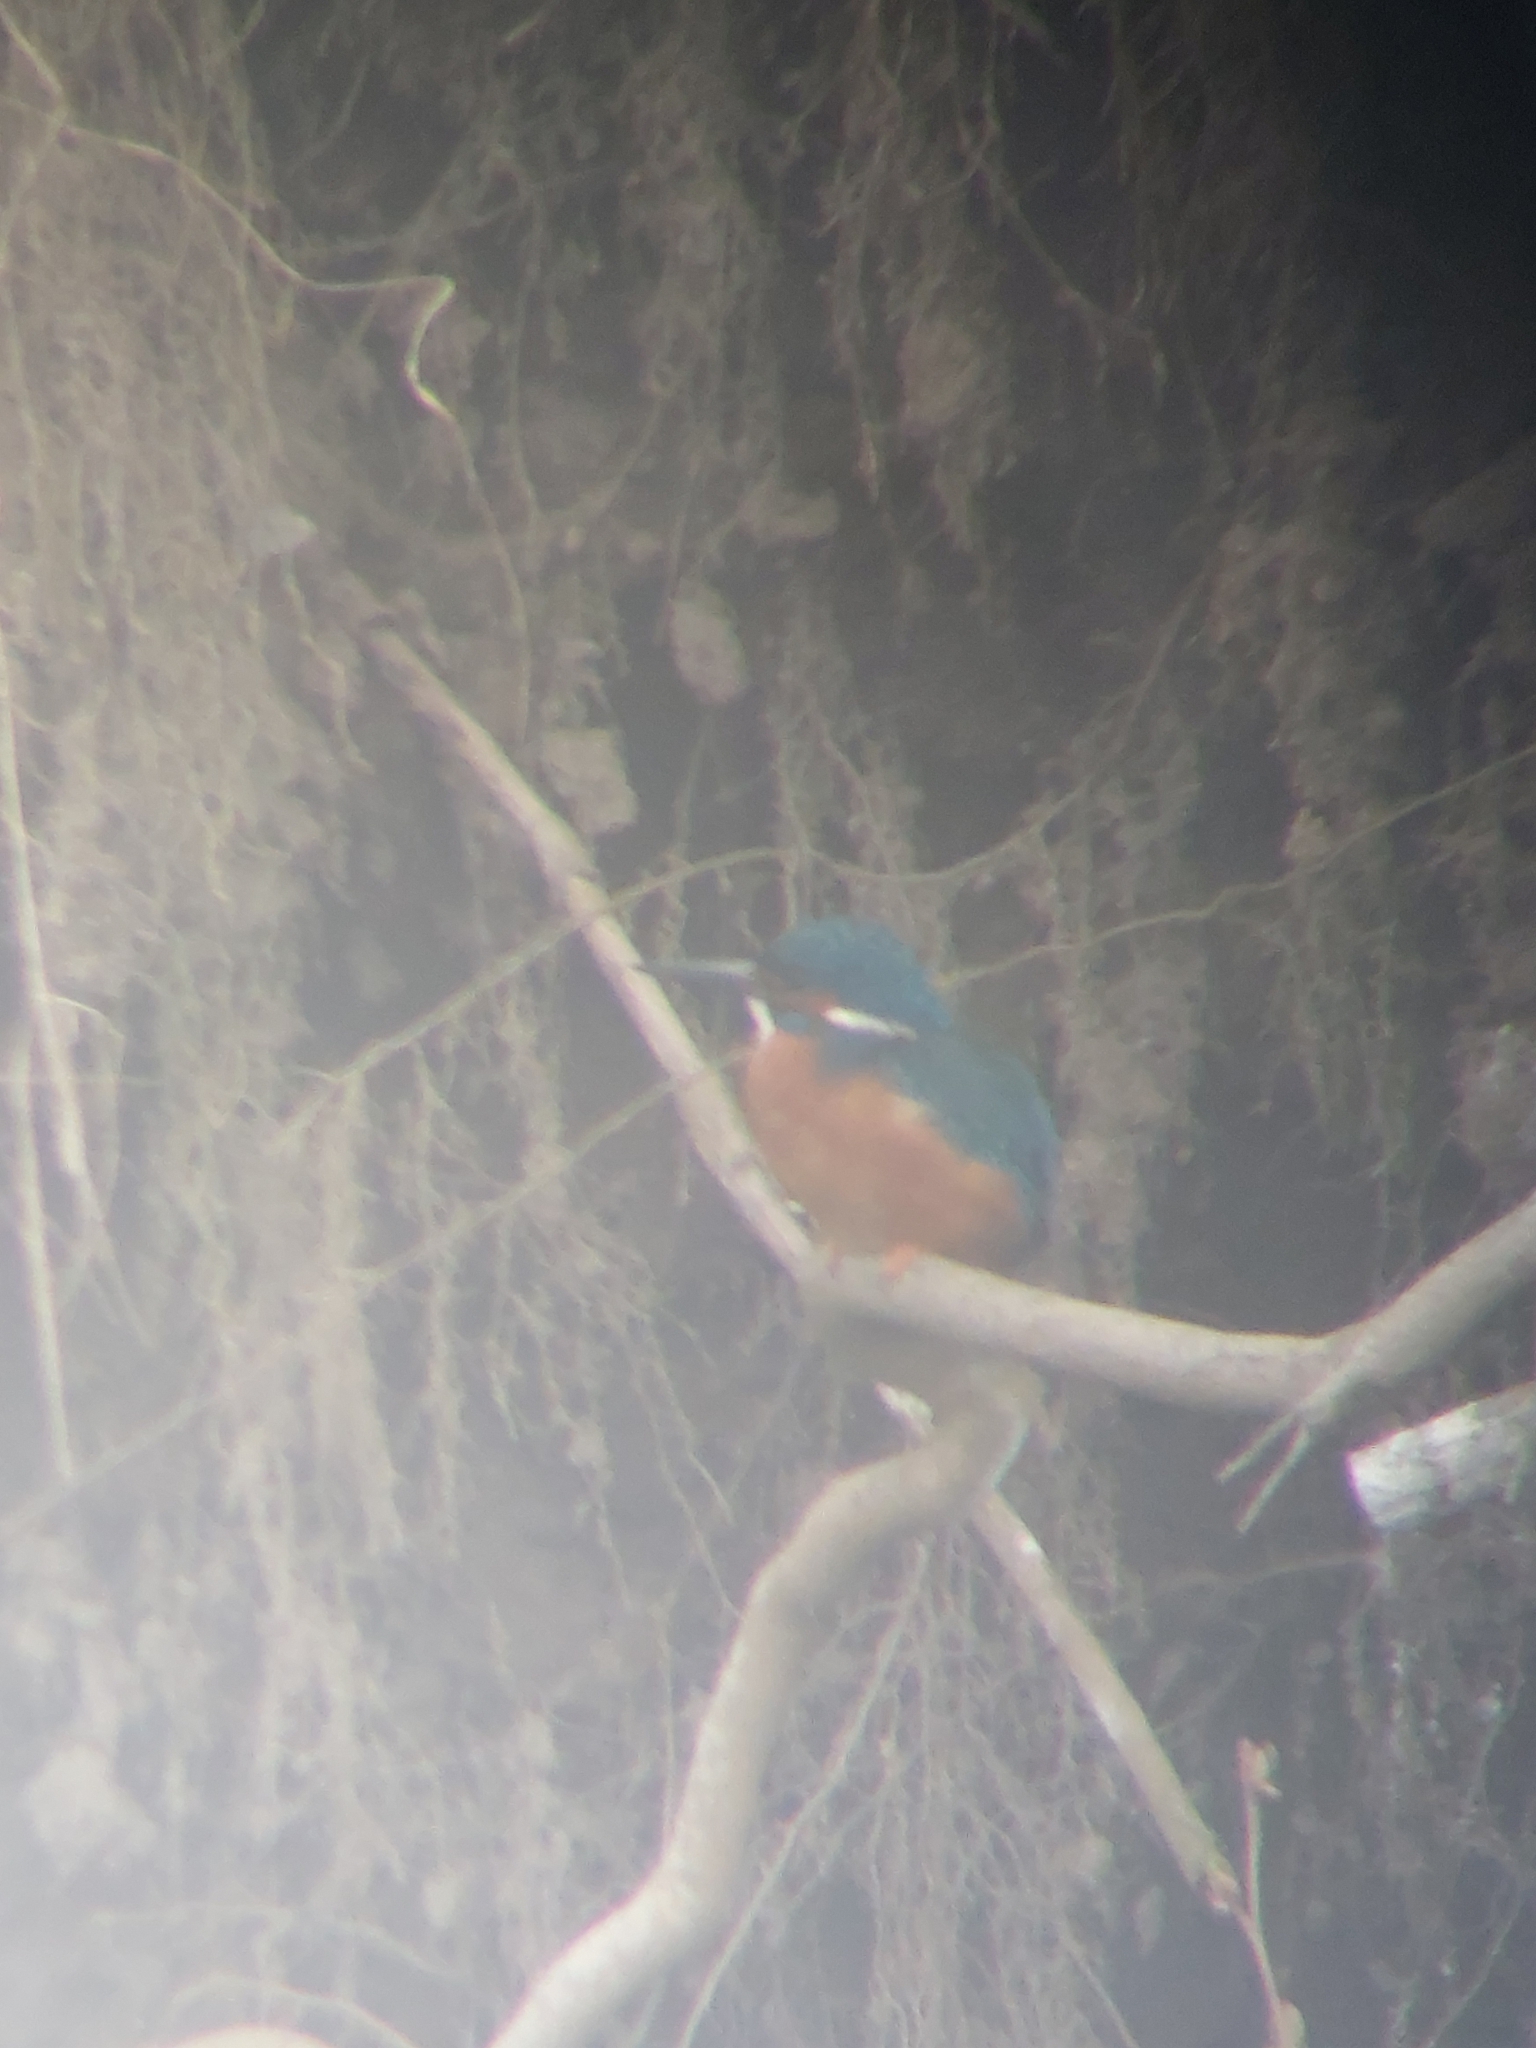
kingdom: Animalia
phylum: Chordata
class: Aves
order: Coraciiformes
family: Alcedinidae
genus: Alcedo
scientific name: Alcedo atthis
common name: Common kingfisher
